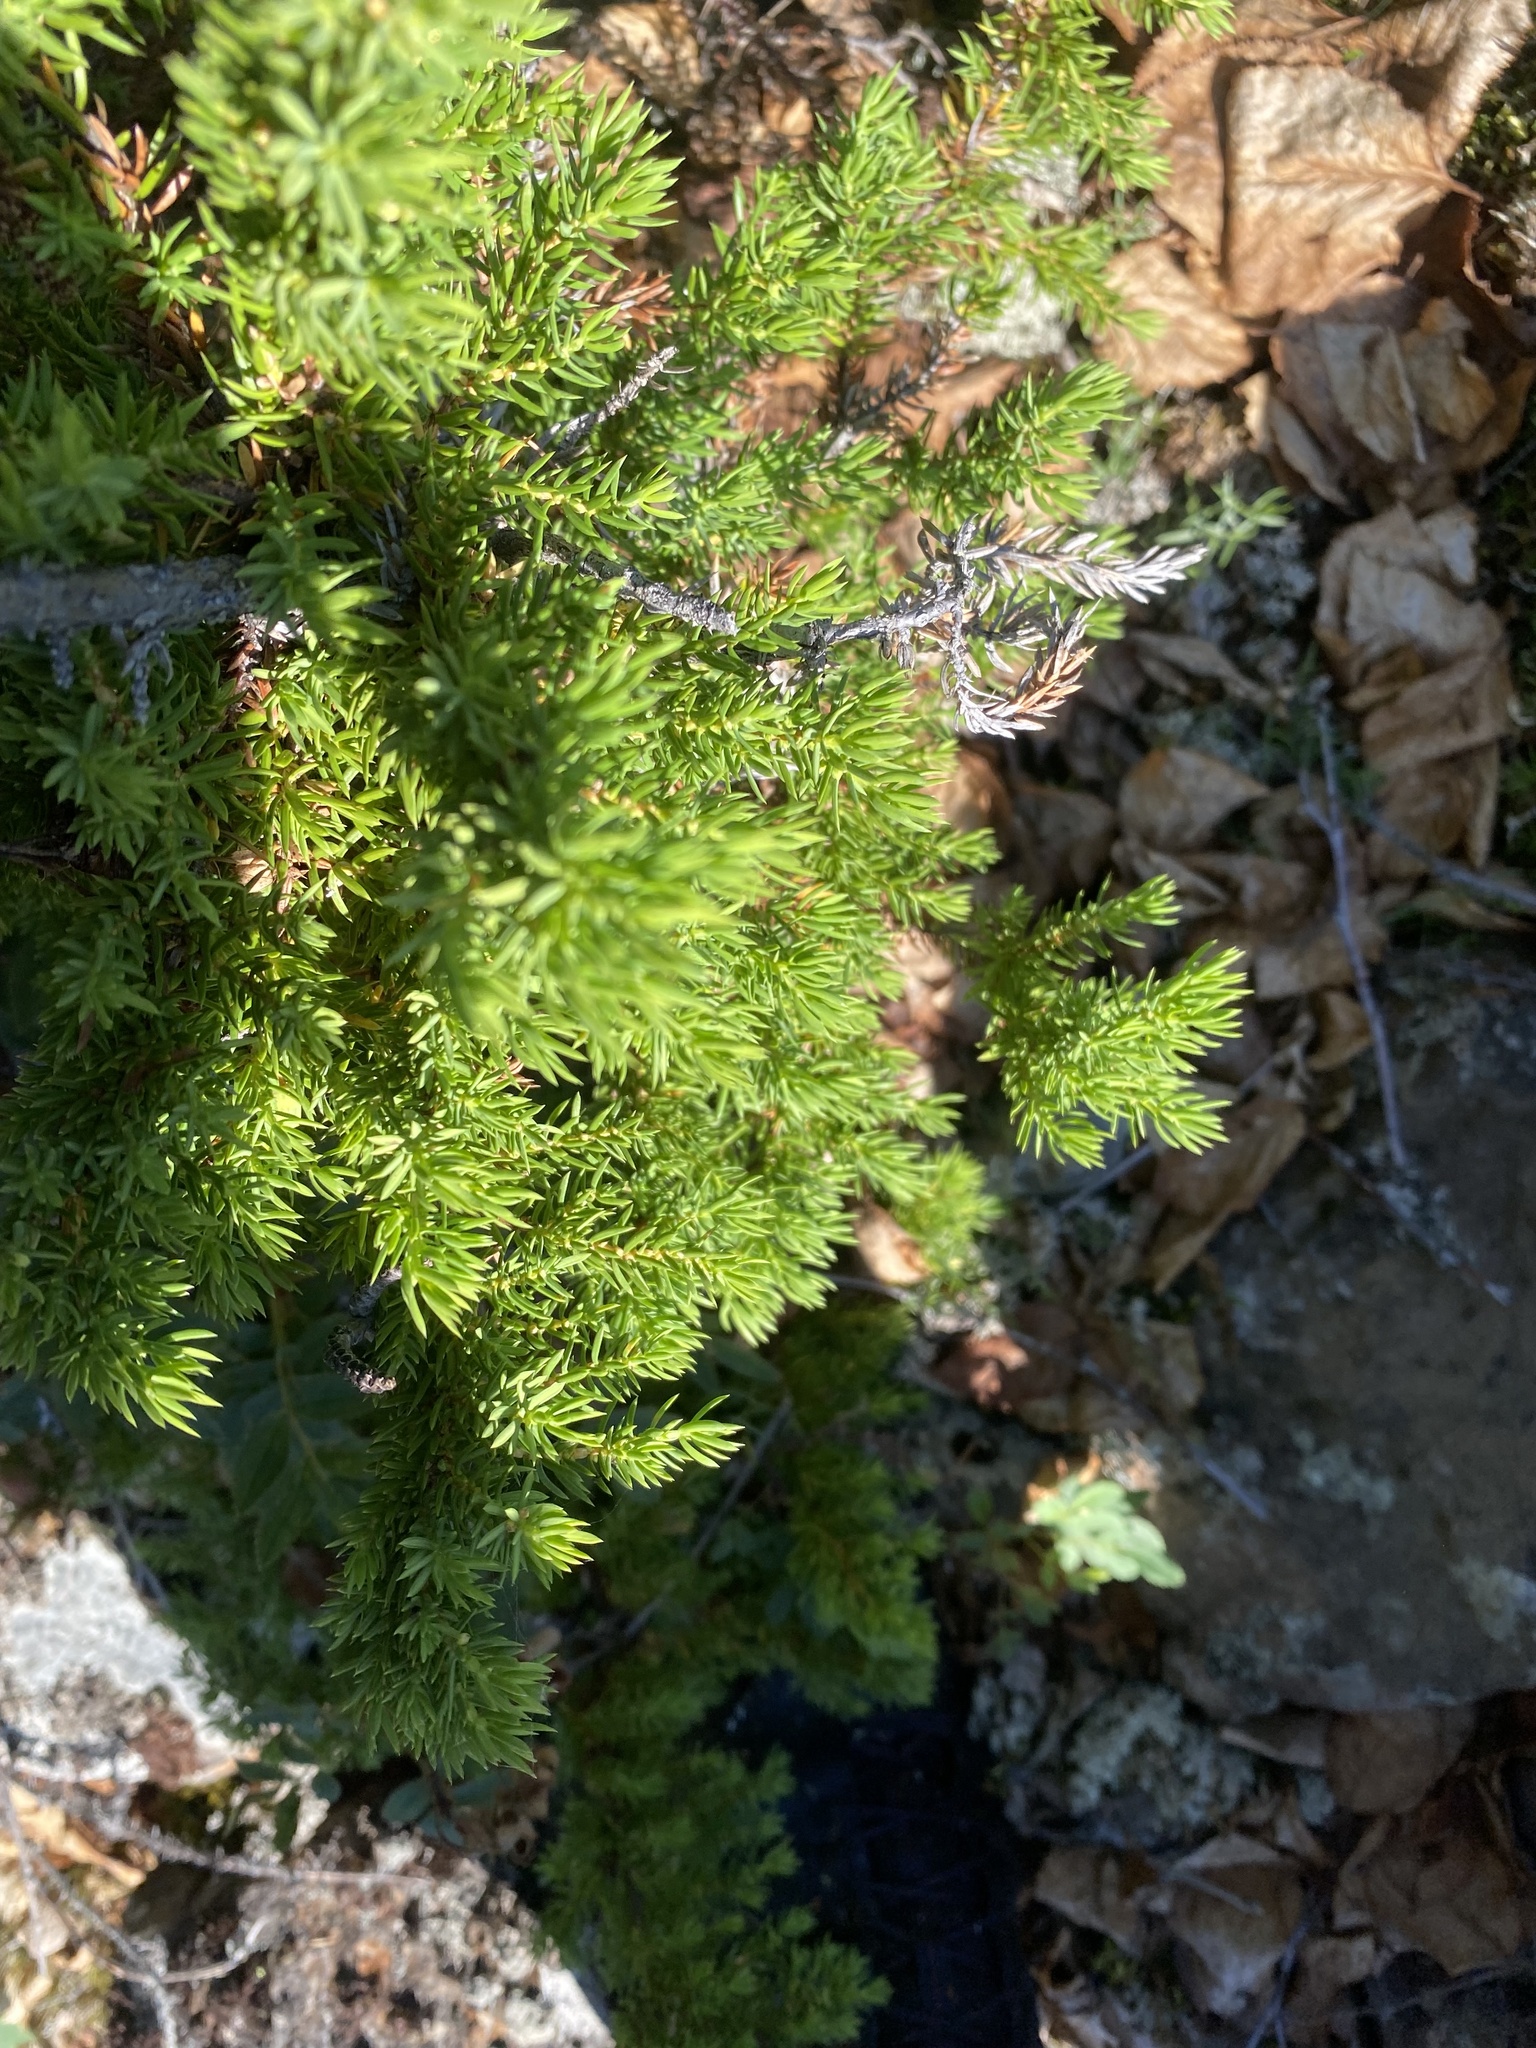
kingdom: Plantae
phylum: Tracheophyta
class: Pinopsida
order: Pinales
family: Cupressaceae
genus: Juniperus
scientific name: Juniperus communis
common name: Common juniper
